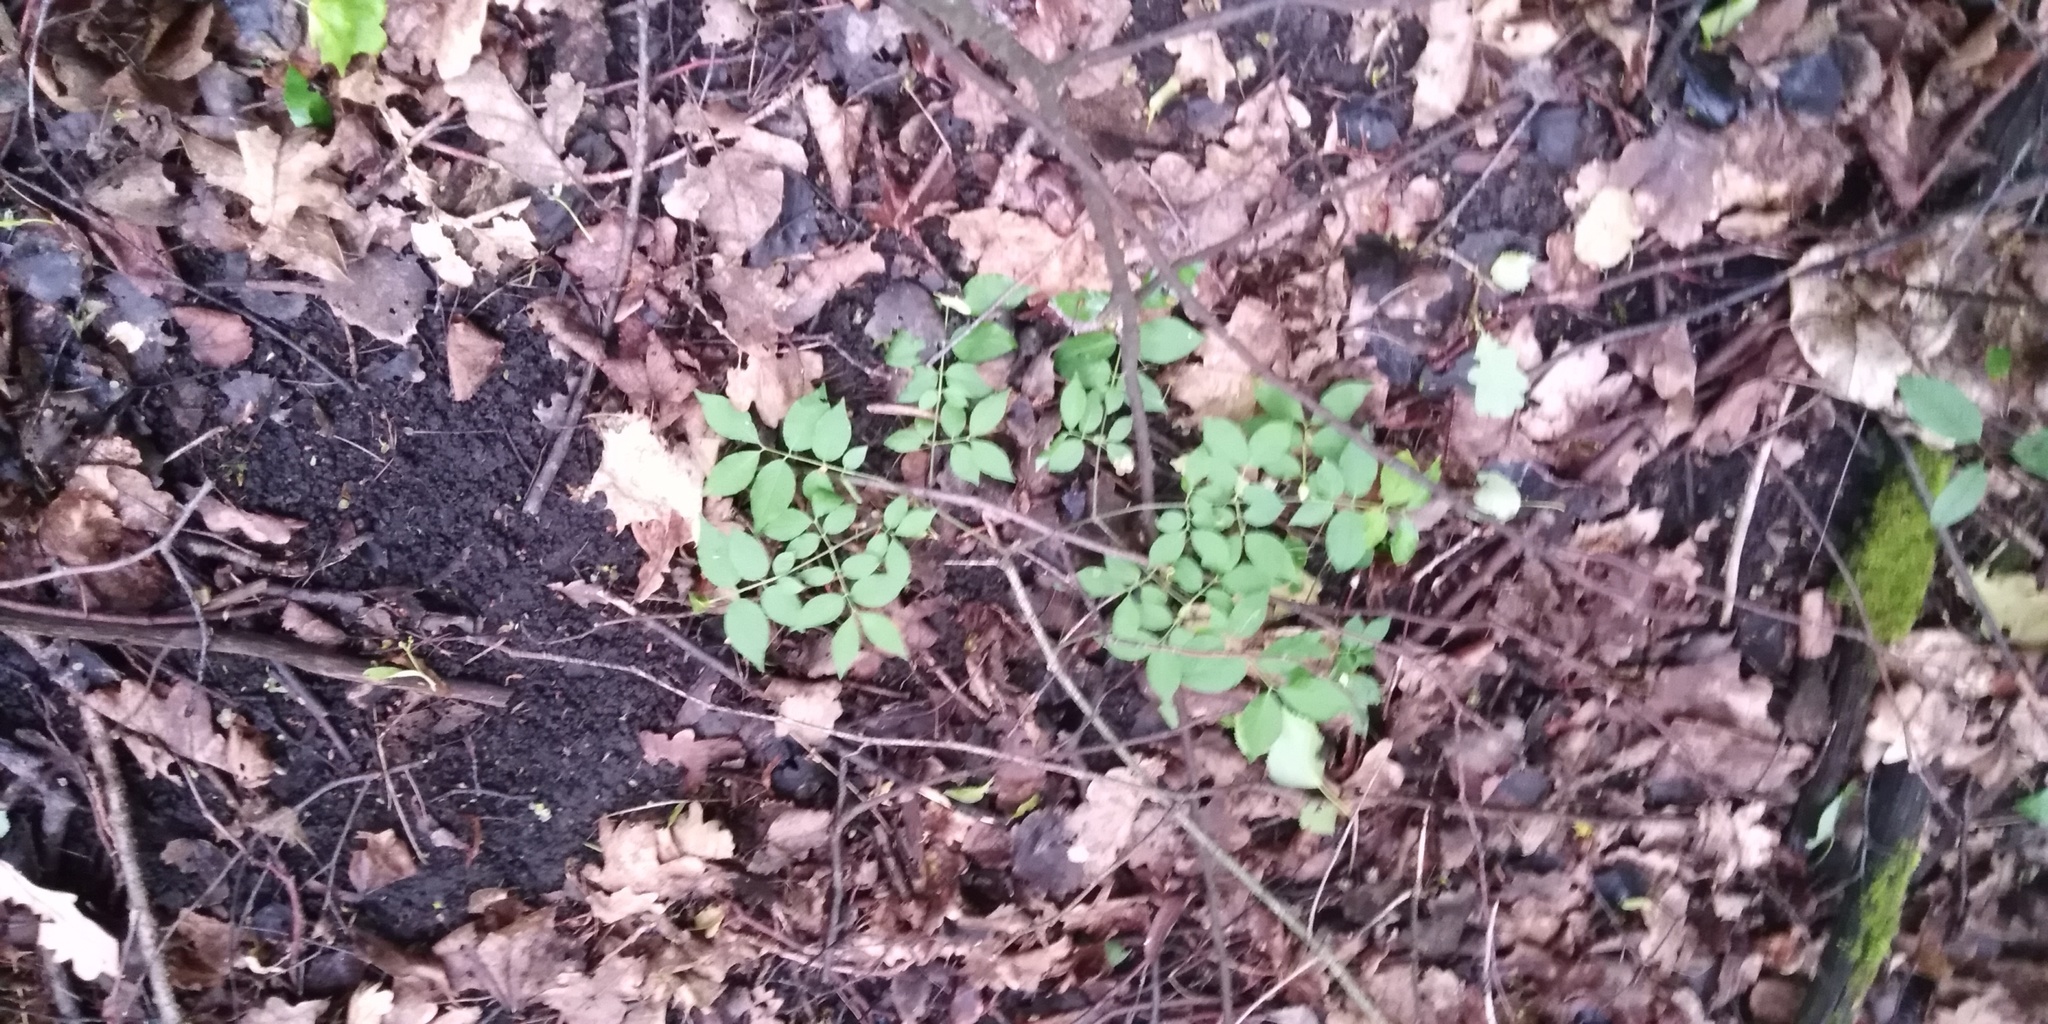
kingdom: Plantae
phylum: Tracheophyta
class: Magnoliopsida
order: Celastrales
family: Celastraceae
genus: Euonymus
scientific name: Euonymus verrucosus
